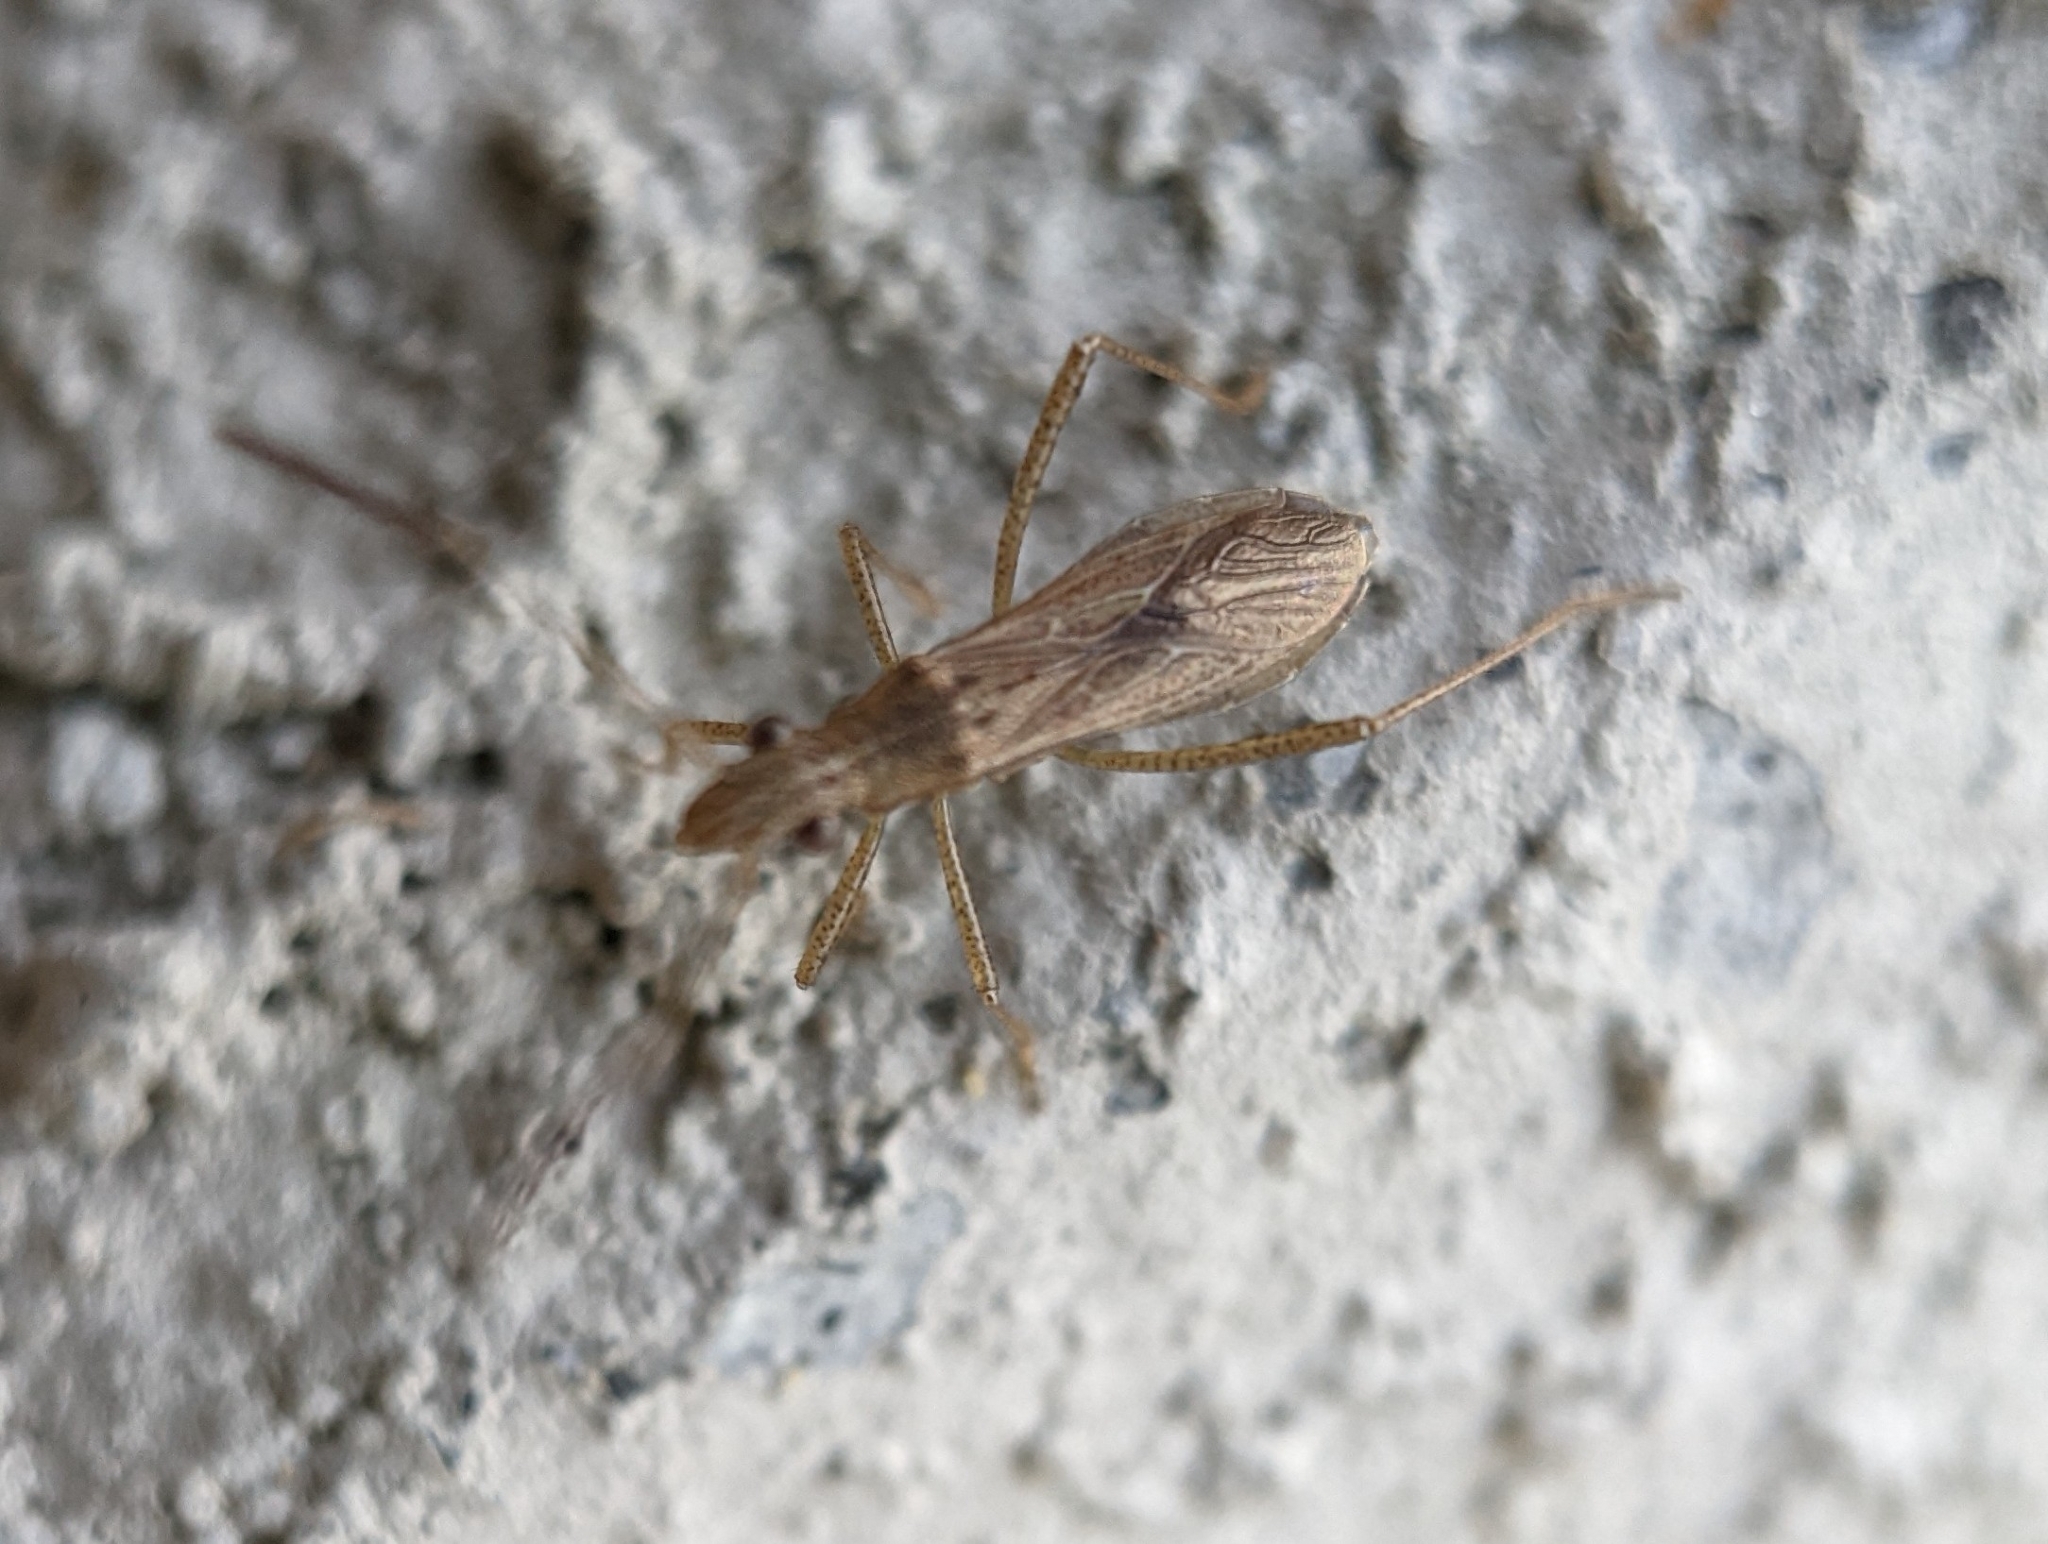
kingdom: Animalia
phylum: Arthropoda
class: Insecta
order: Hemiptera
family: Alydidae
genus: Esperanza
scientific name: Esperanza texana
